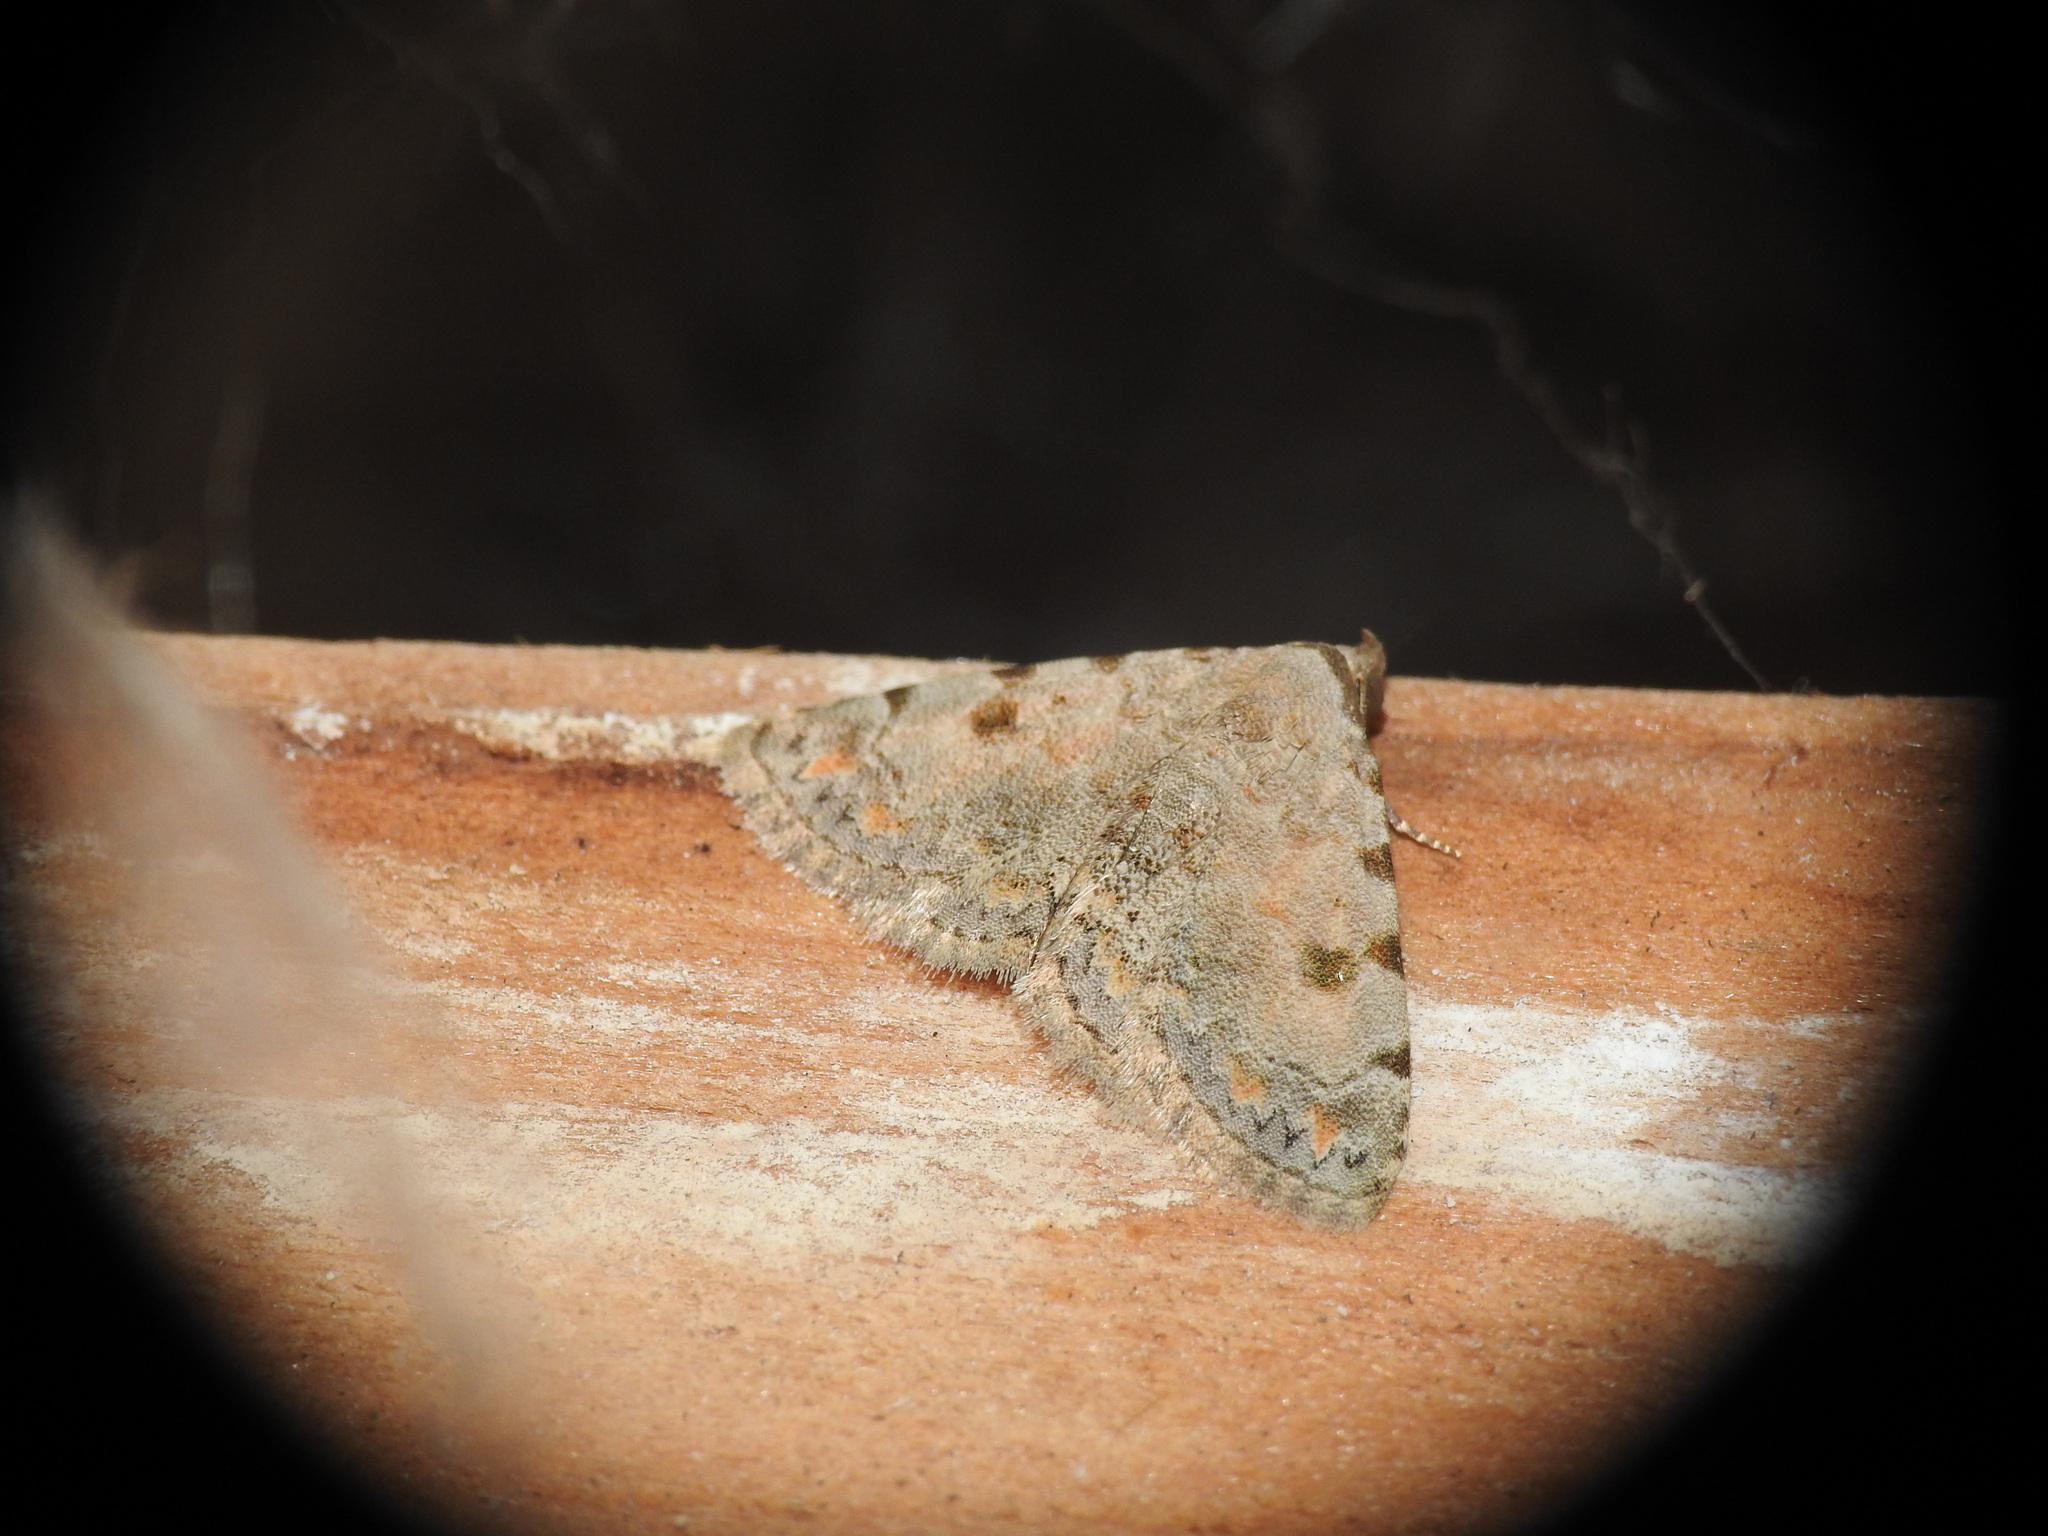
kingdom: Animalia
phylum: Arthropoda
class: Insecta
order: Lepidoptera
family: Noctuidae
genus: Metachrostis
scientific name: Metachrostis velox
